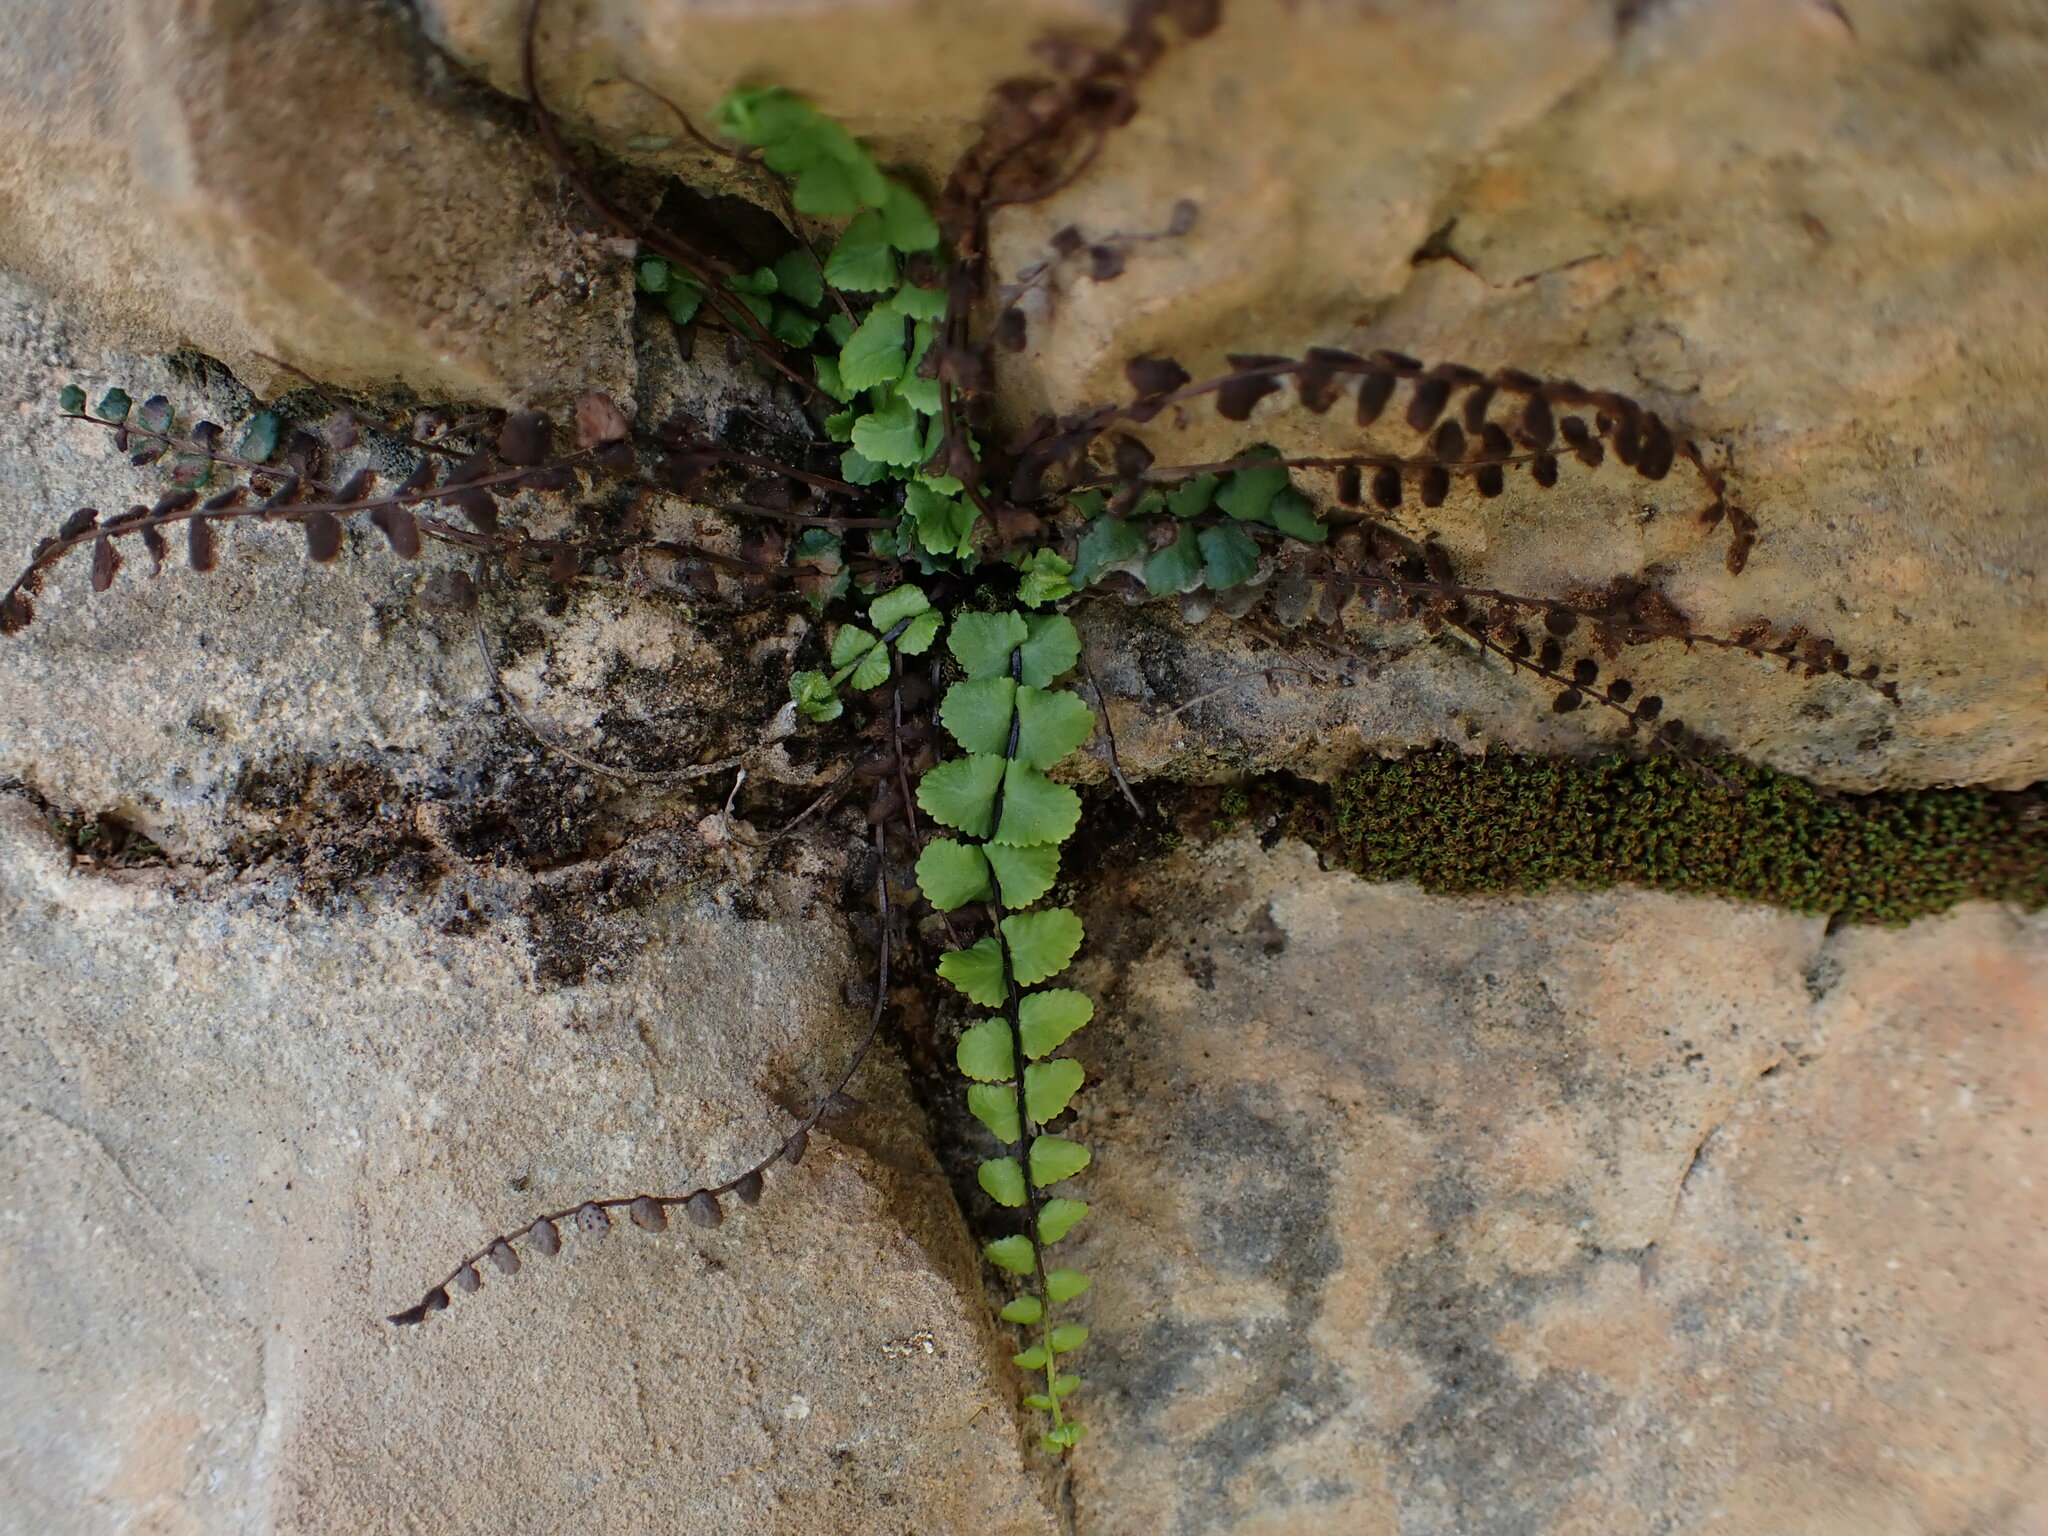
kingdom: Plantae
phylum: Tracheophyta
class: Polypodiopsida
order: Polypodiales
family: Aspleniaceae
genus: Asplenium
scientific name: Asplenium trichomanes
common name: Maidenhair spleenwort
